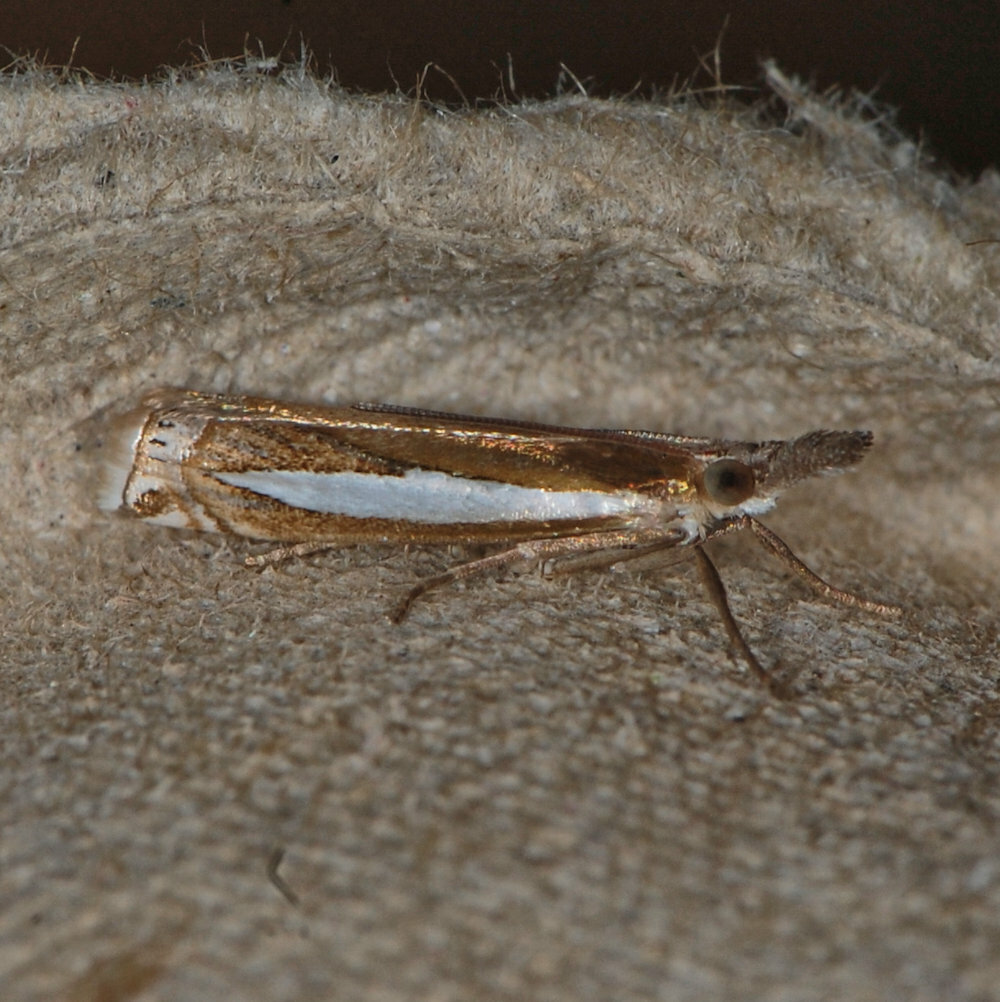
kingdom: Animalia
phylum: Arthropoda
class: Insecta
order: Lepidoptera
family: Crambidae
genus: Crambus
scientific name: Crambus praefectellus
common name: Common grass-veneer
